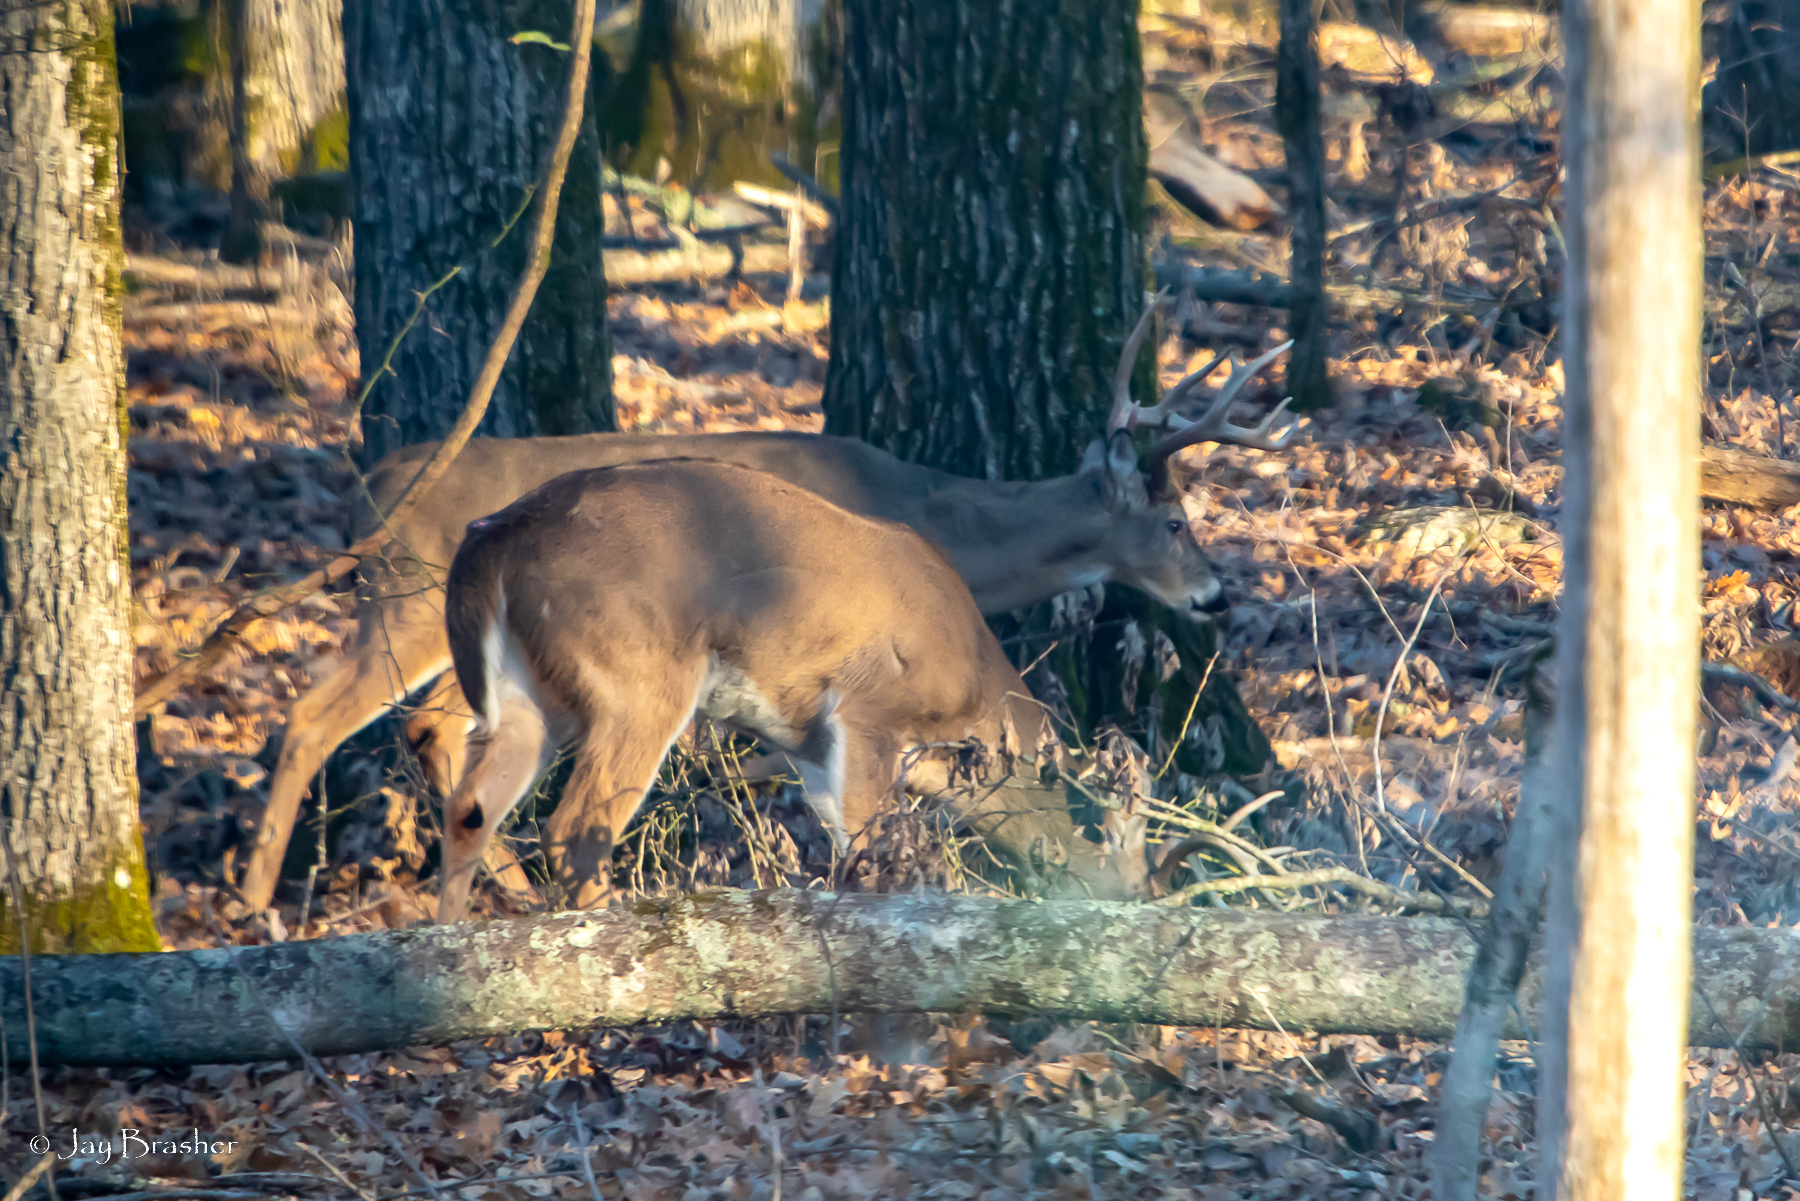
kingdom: Animalia
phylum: Chordata
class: Mammalia
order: Artiodactyla
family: Cervidae
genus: Odocoileus
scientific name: Odocoileus virginianus
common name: White-tailed deer
